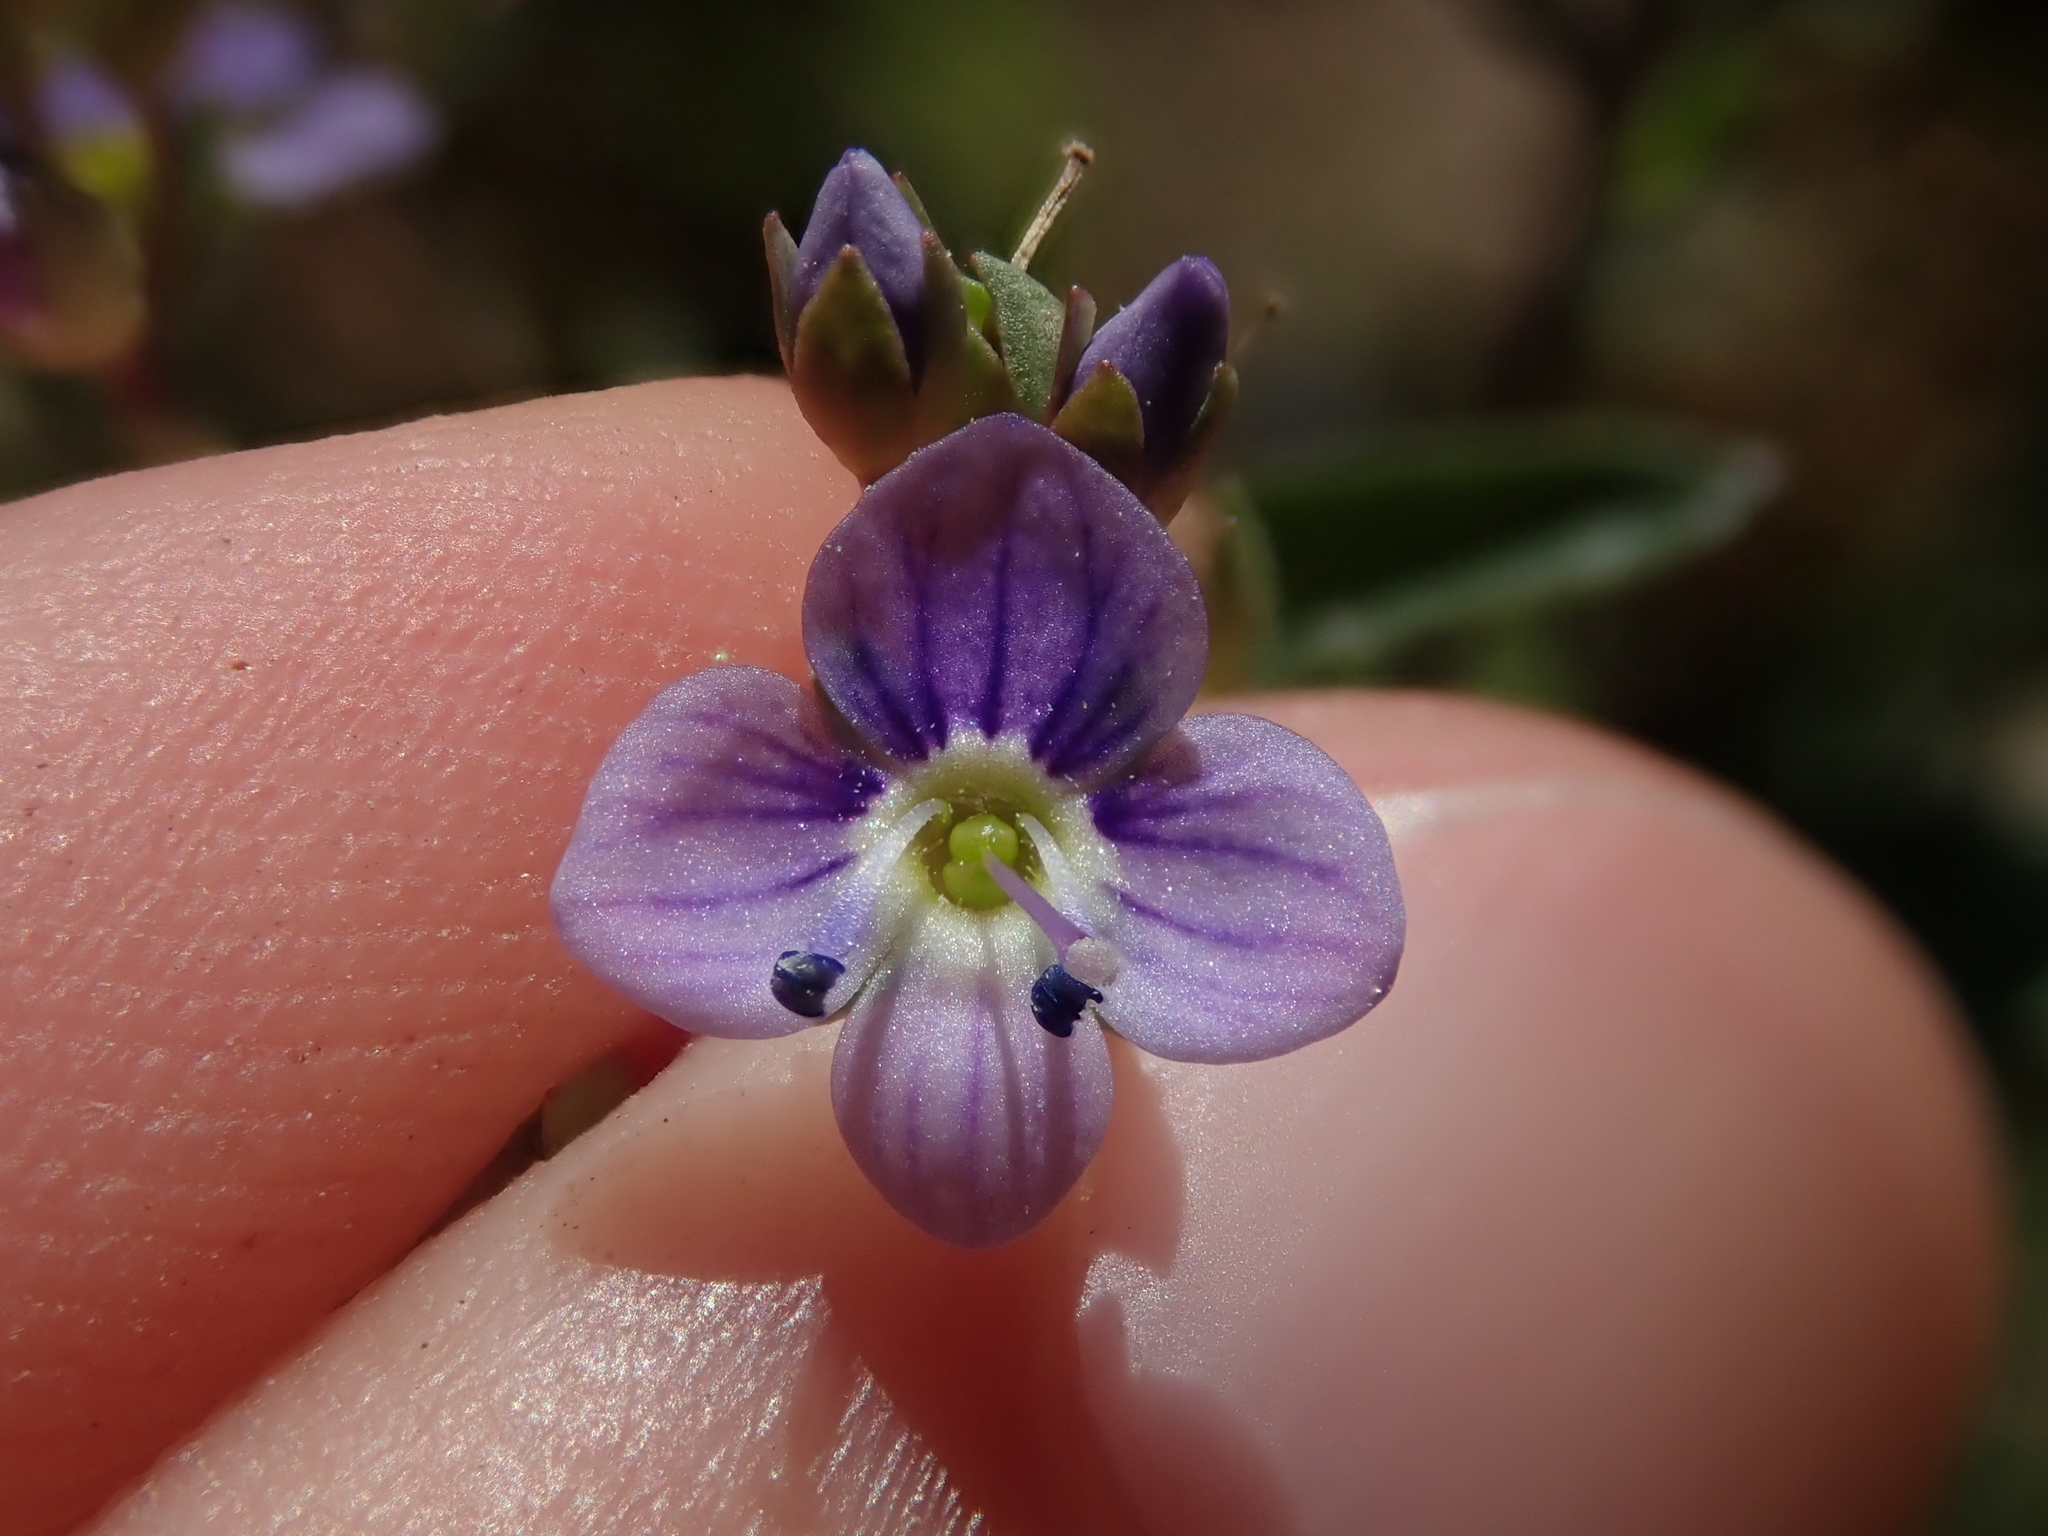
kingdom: Plantae
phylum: Tracheophyta
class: Magnoliopsida
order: Lamiales
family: Plantaginaceae
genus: Veronica
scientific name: Veronica anagallis-aquatica
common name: Water speedwell
